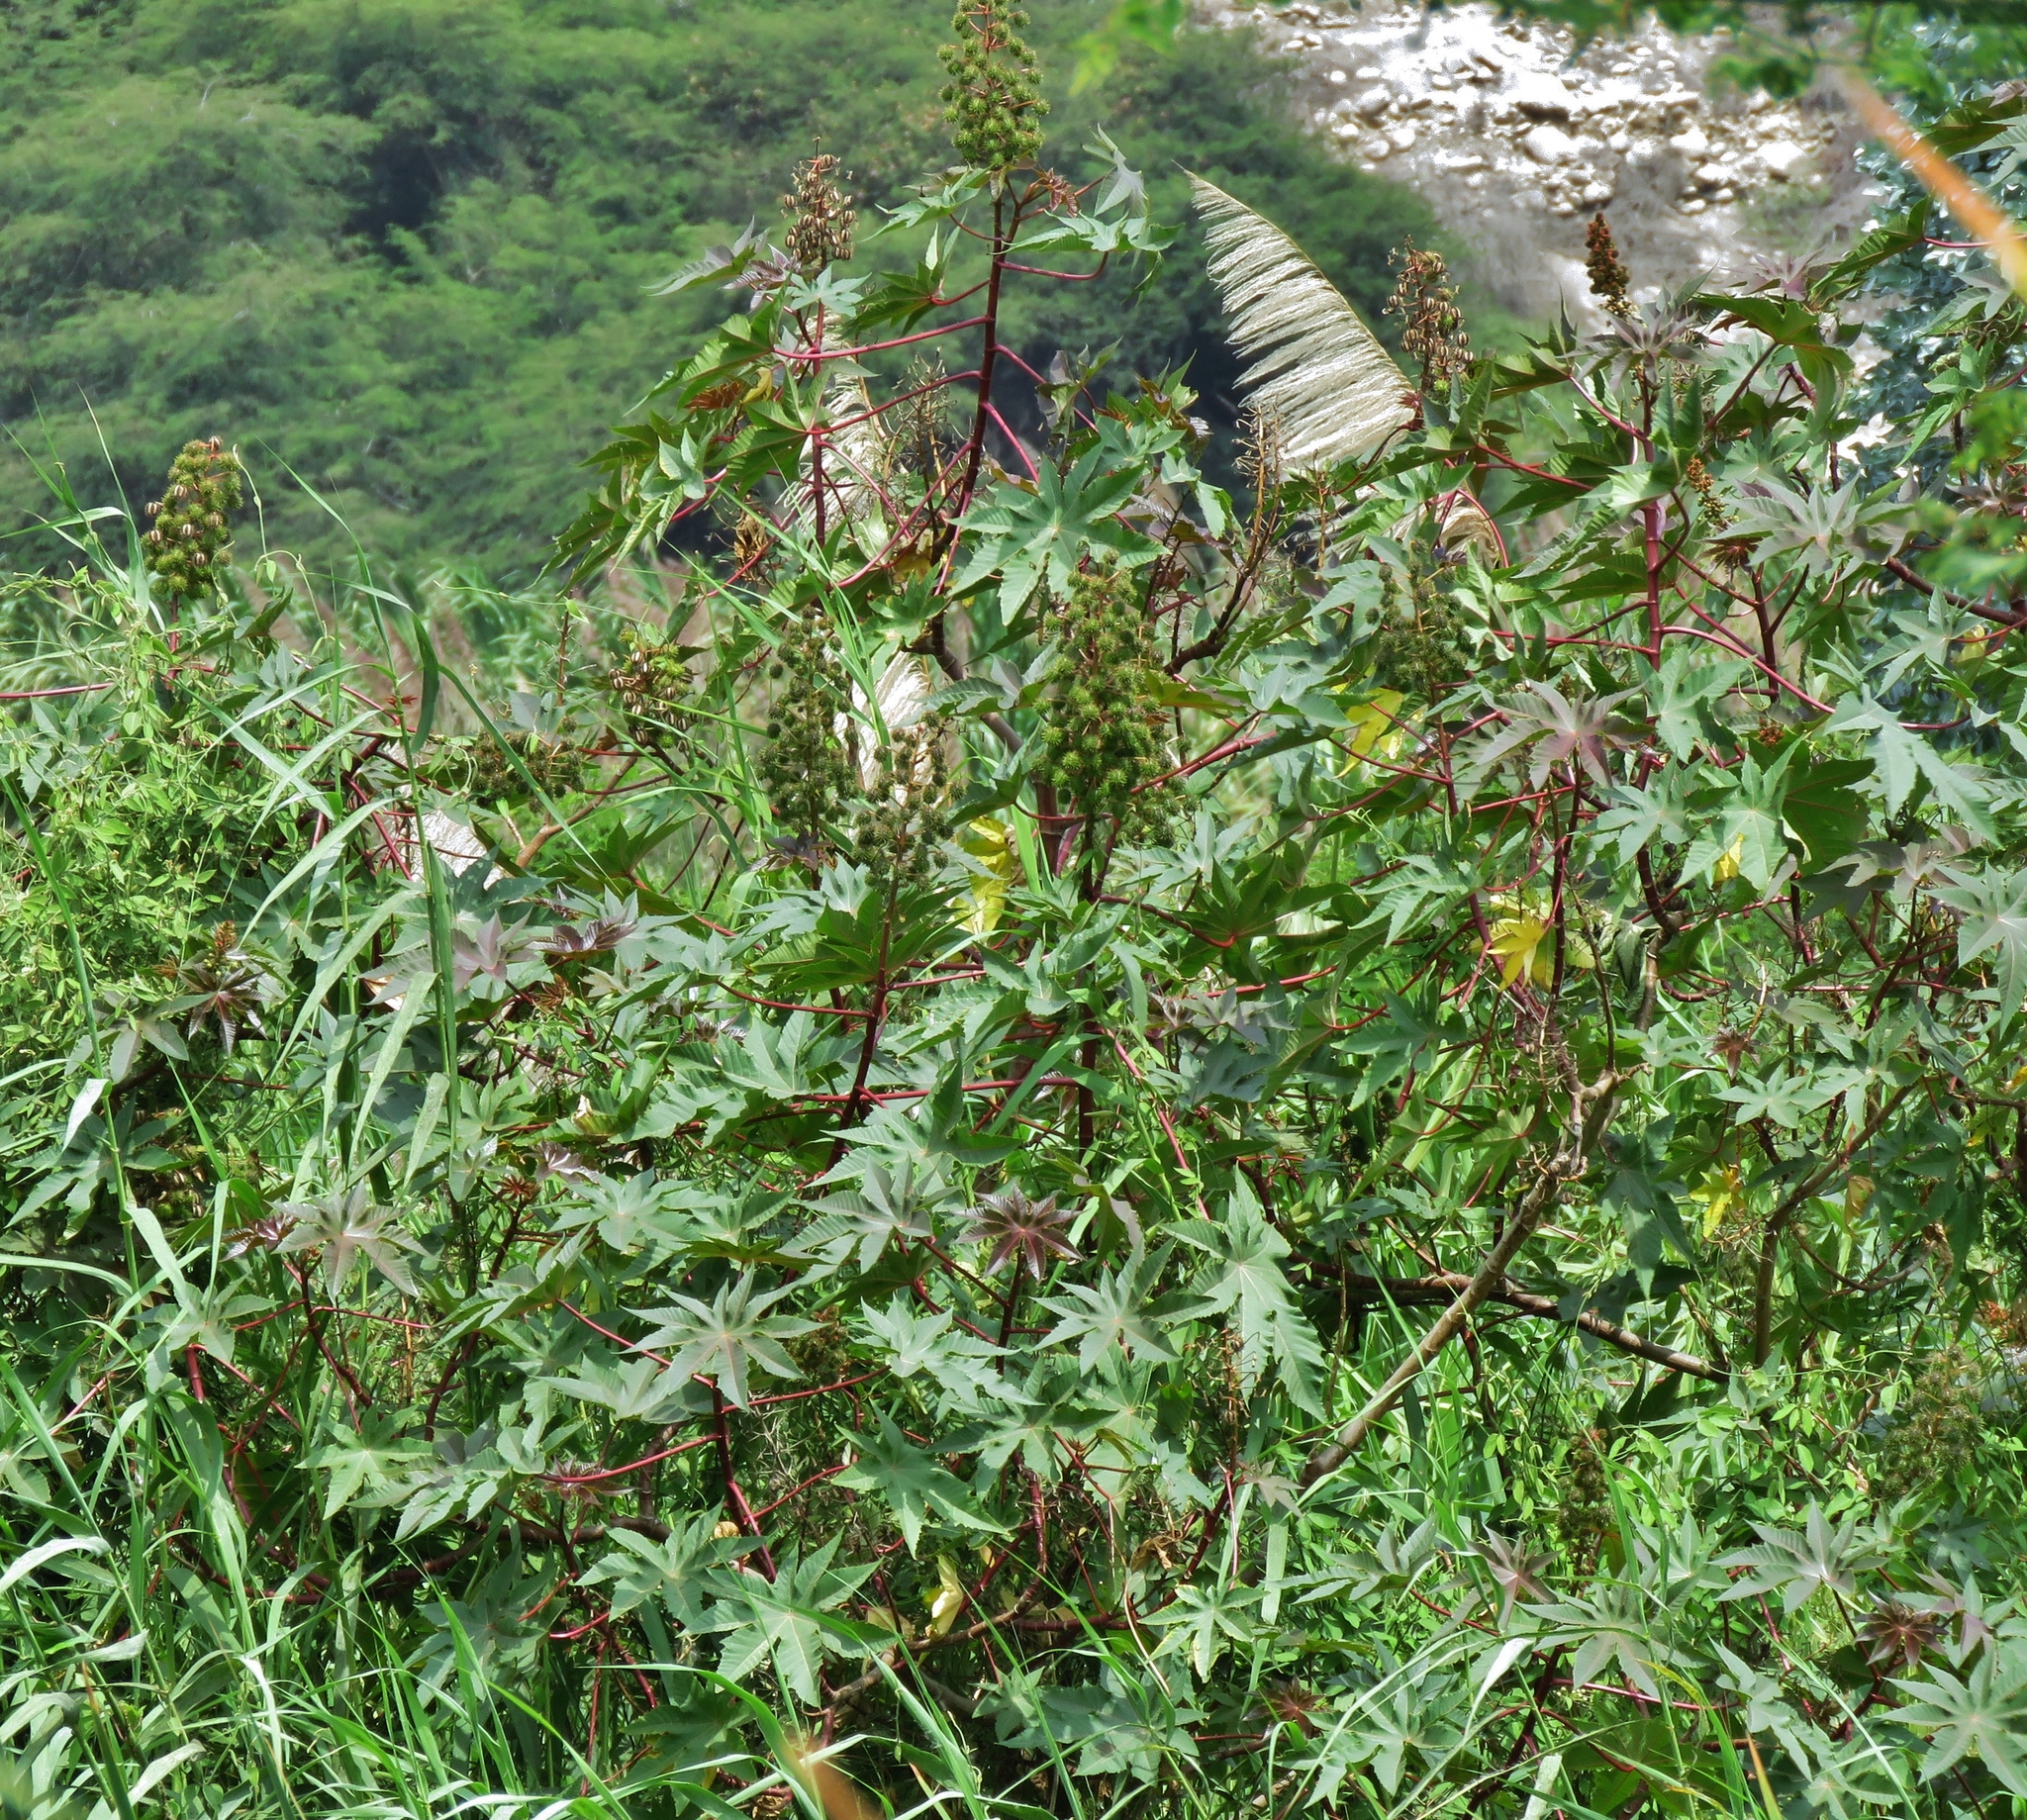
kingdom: Plantae
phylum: Tracheophyta
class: Magnoliopsida
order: Malpighiales
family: Euphorbiaceae
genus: Ricinus
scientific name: Ricinus communis
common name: Castor-oil-plant
